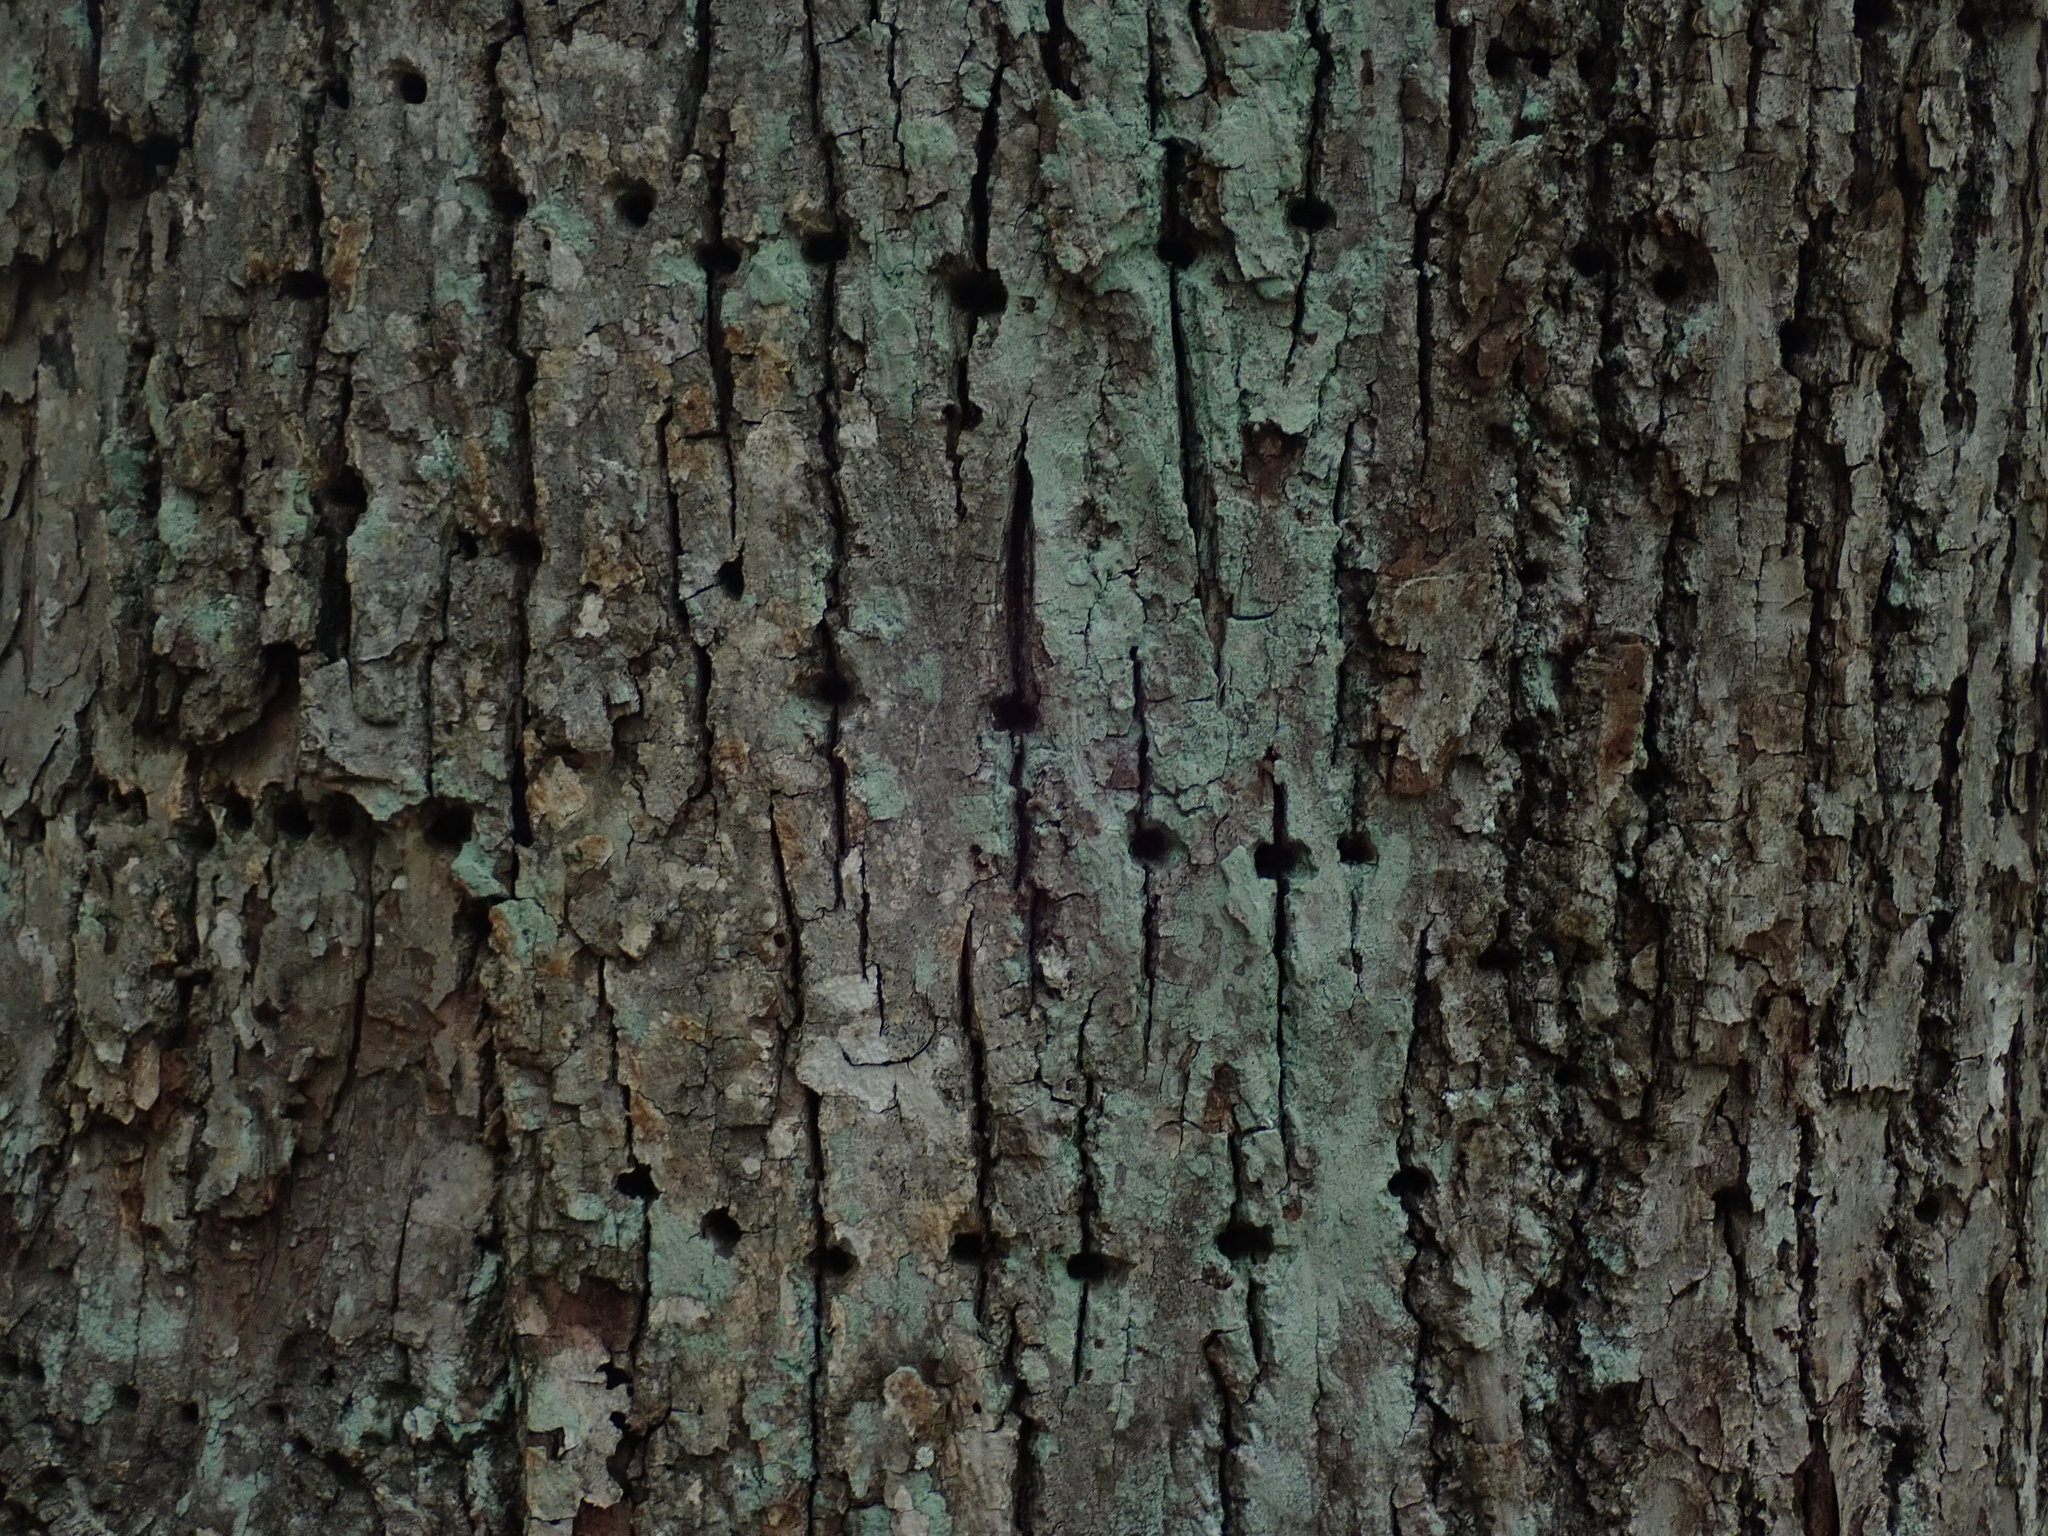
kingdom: Animalia
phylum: Chordata
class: Aves
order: Piciformes
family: Picidae
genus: Sphyrapicus
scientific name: Sphyrapicus varius
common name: Yellow-bellied sapsucker
